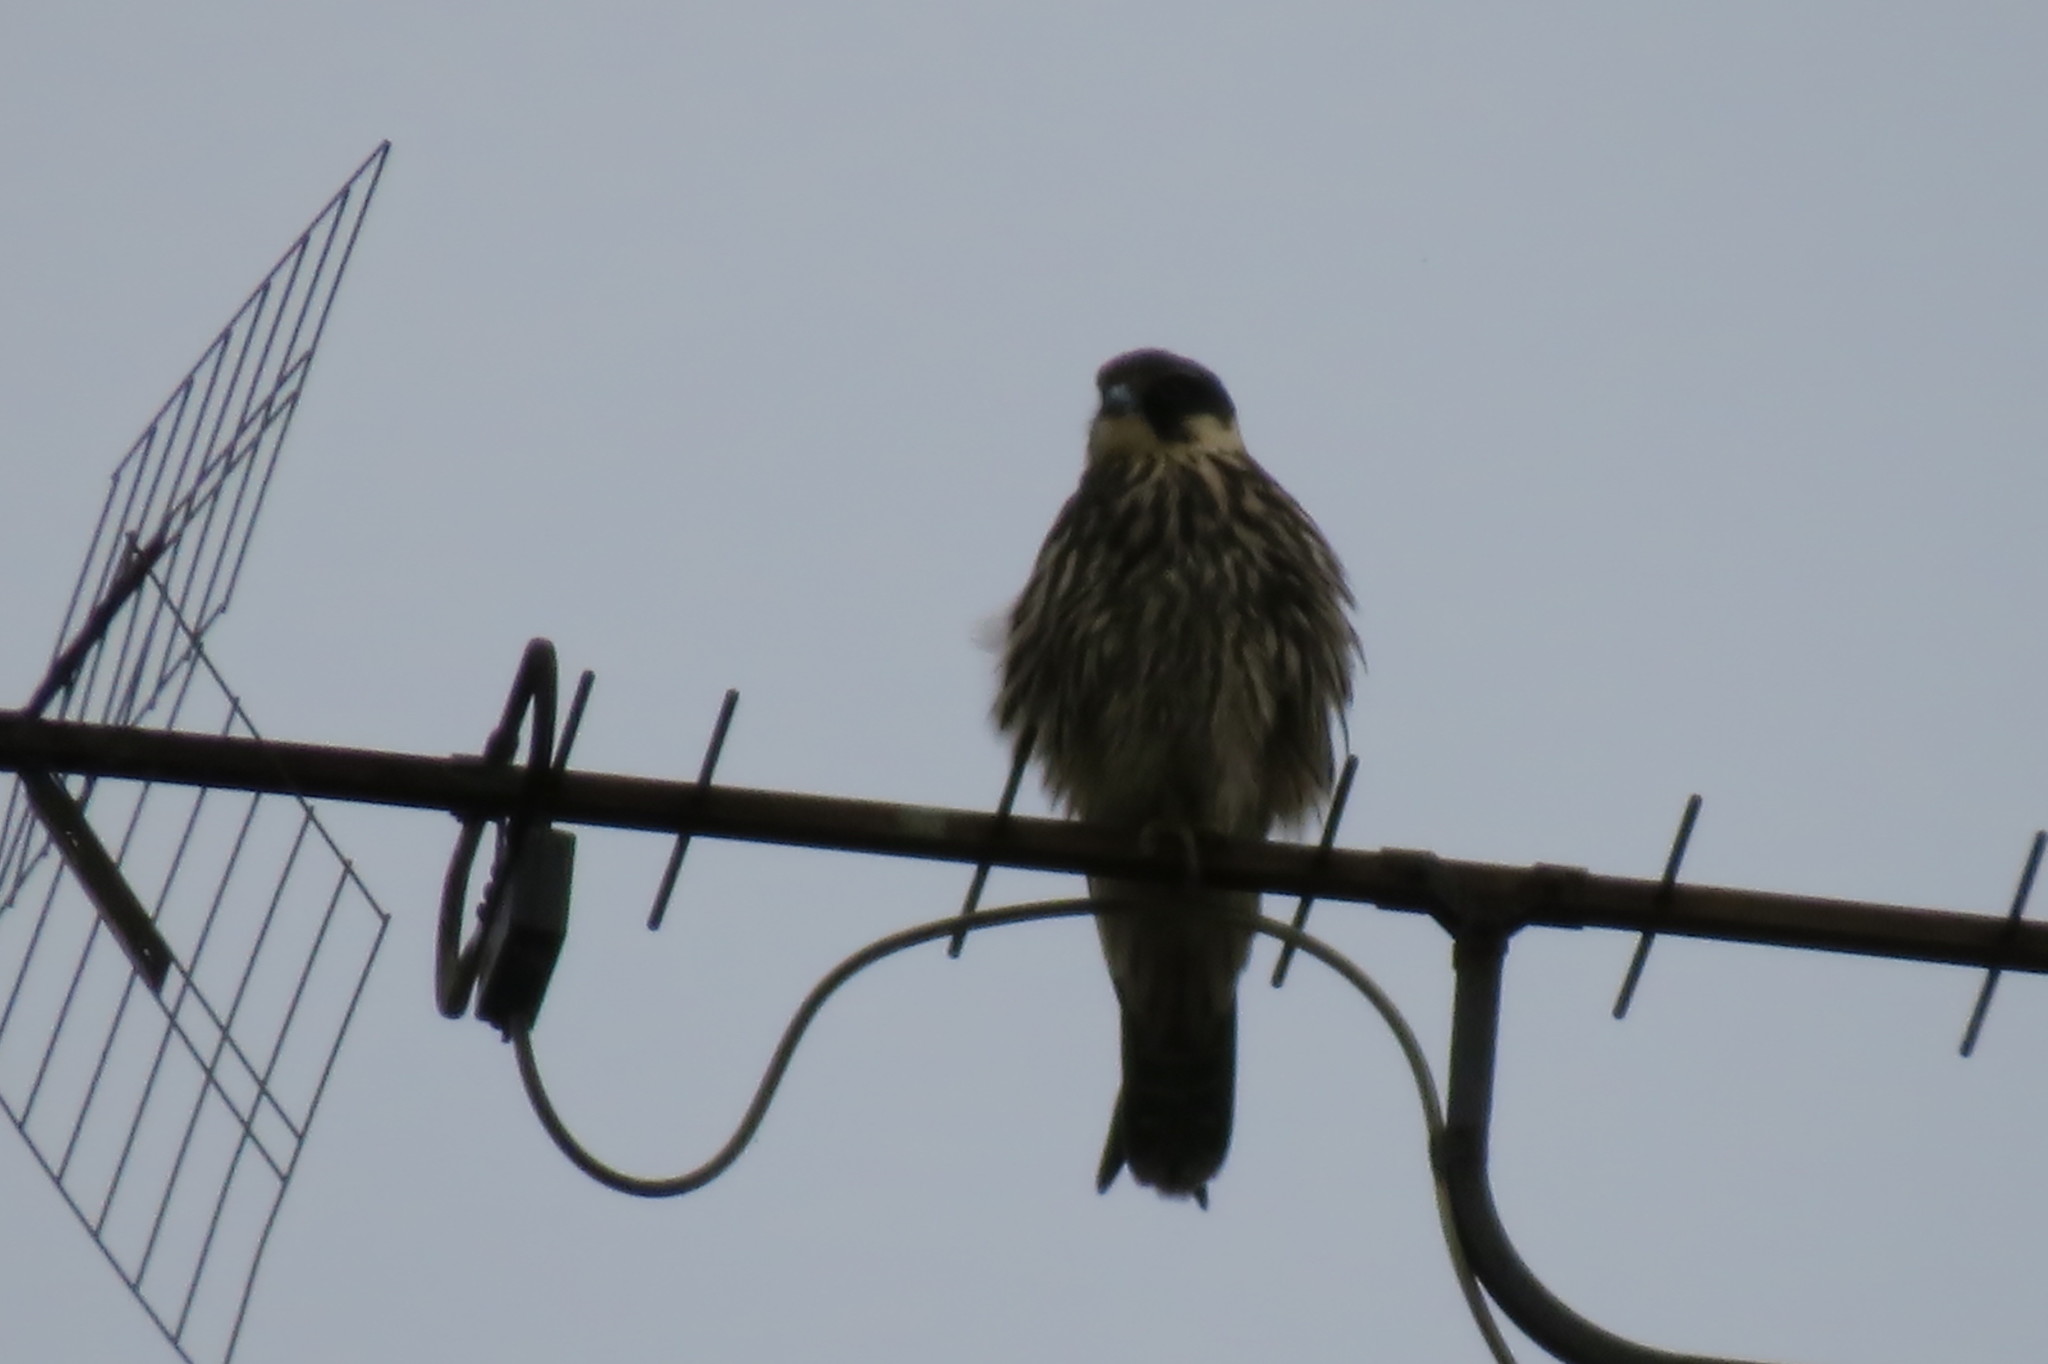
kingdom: Animalia
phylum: Chordata
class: Aves
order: Falconiformes
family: Falconidae
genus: Falco
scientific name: Falco subbuteo
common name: Eurasian hobby
